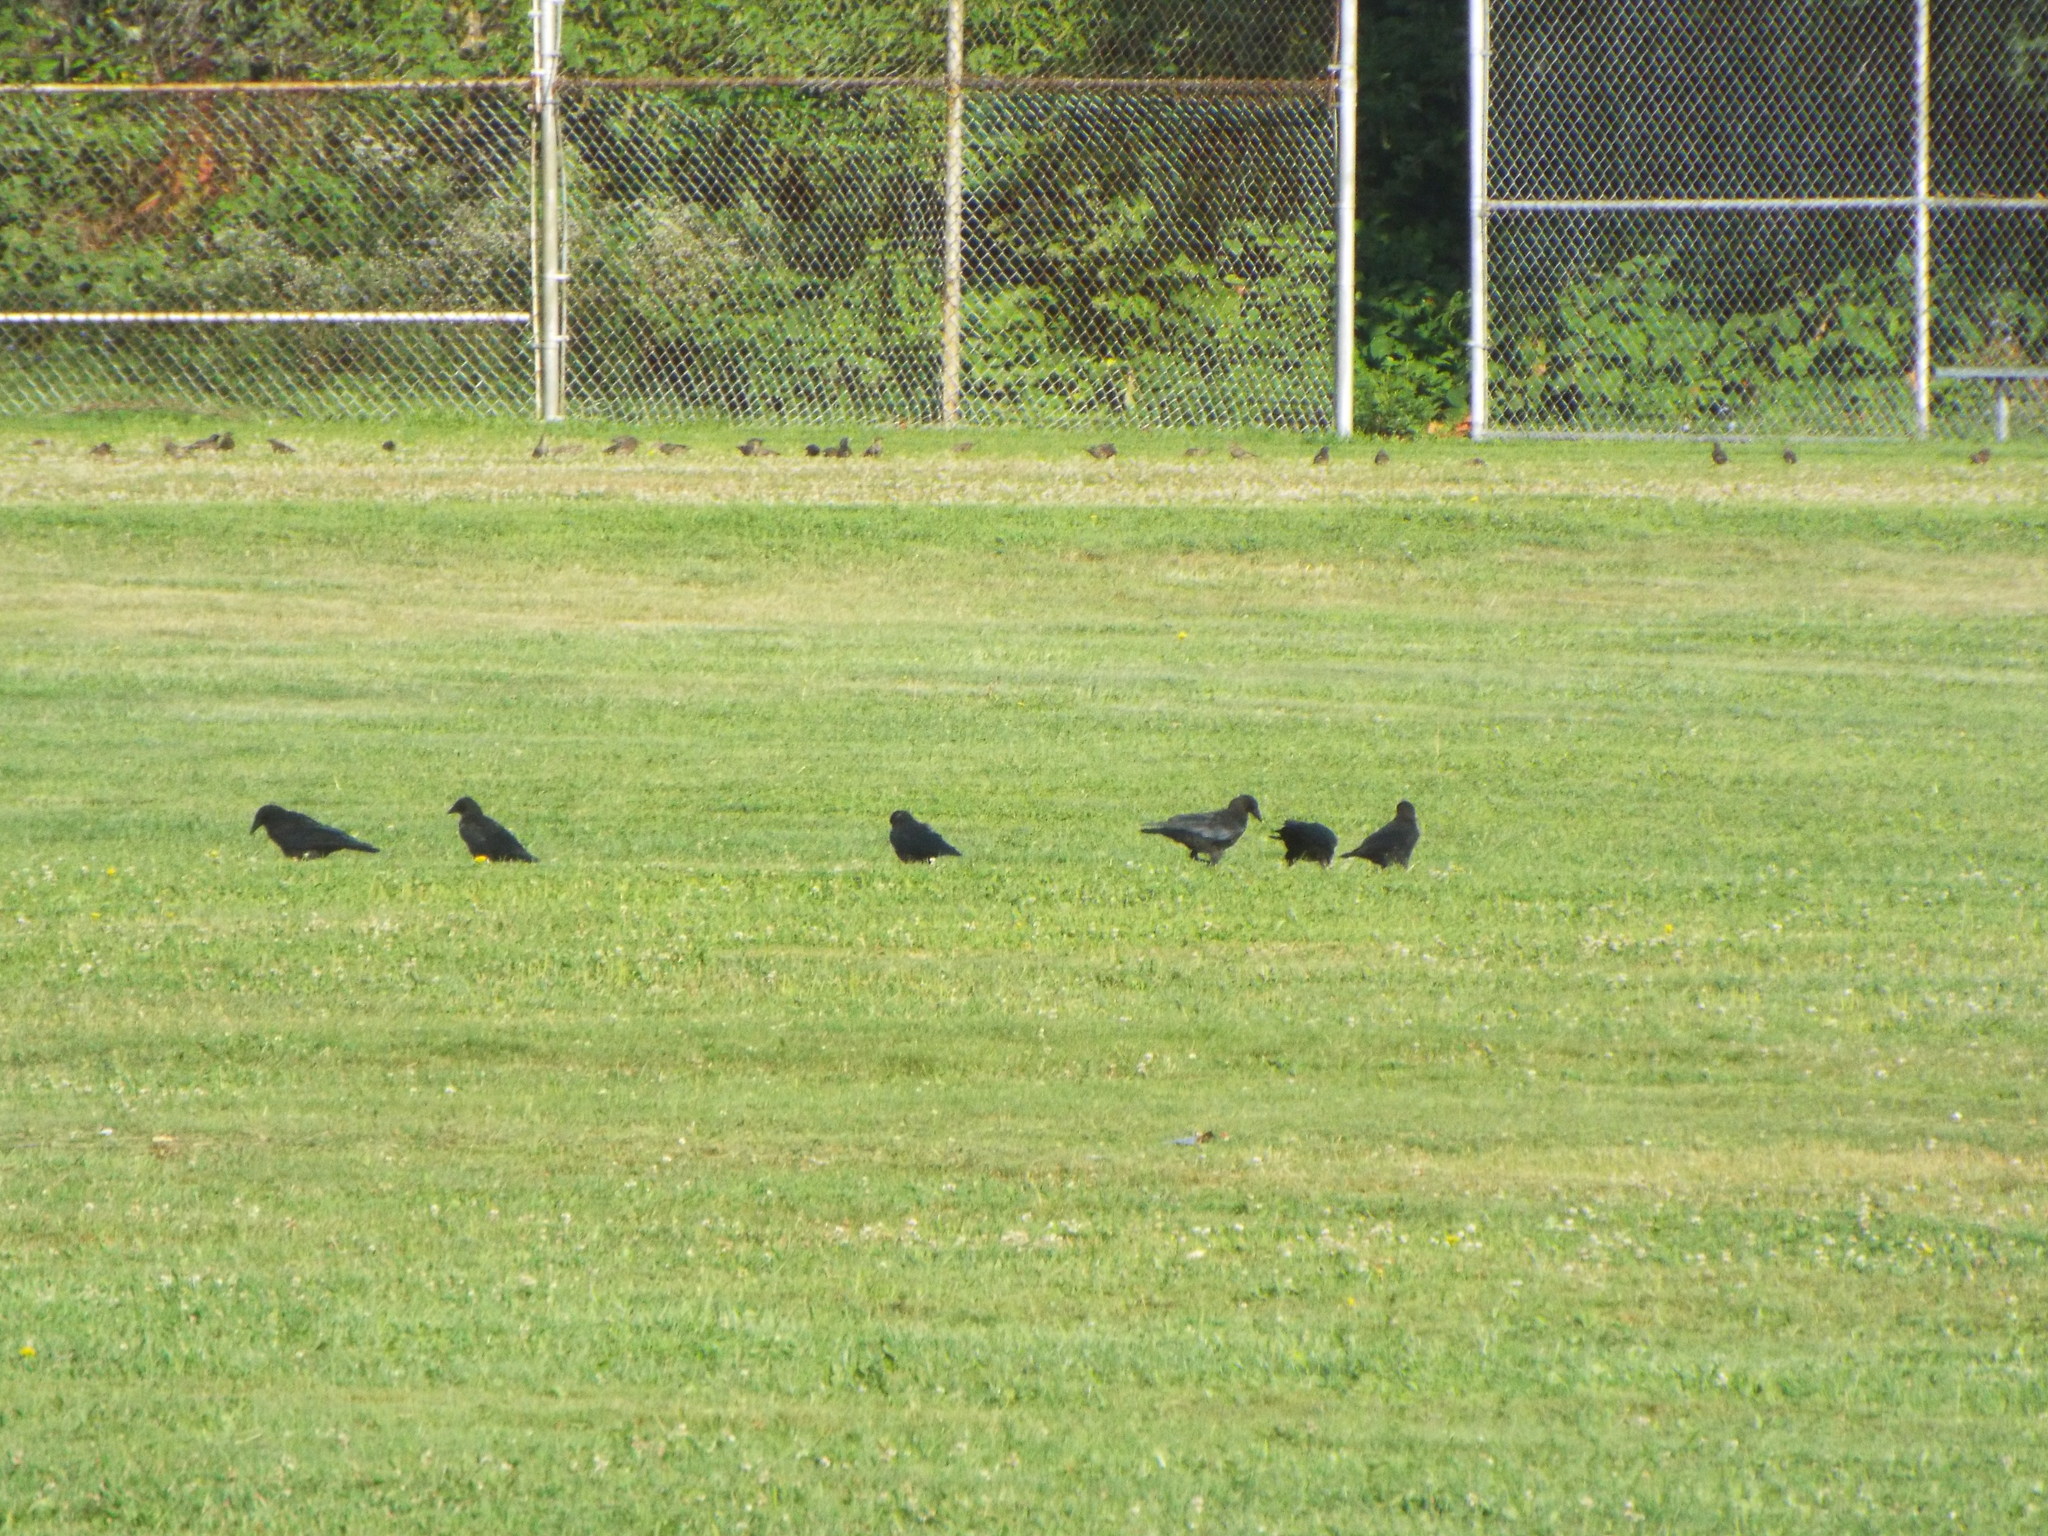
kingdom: Animalia
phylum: Chordata
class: Aves
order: Passeriformes
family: Corvidae
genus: Corvus
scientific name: Corvus brachyrhynchos
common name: American crow
